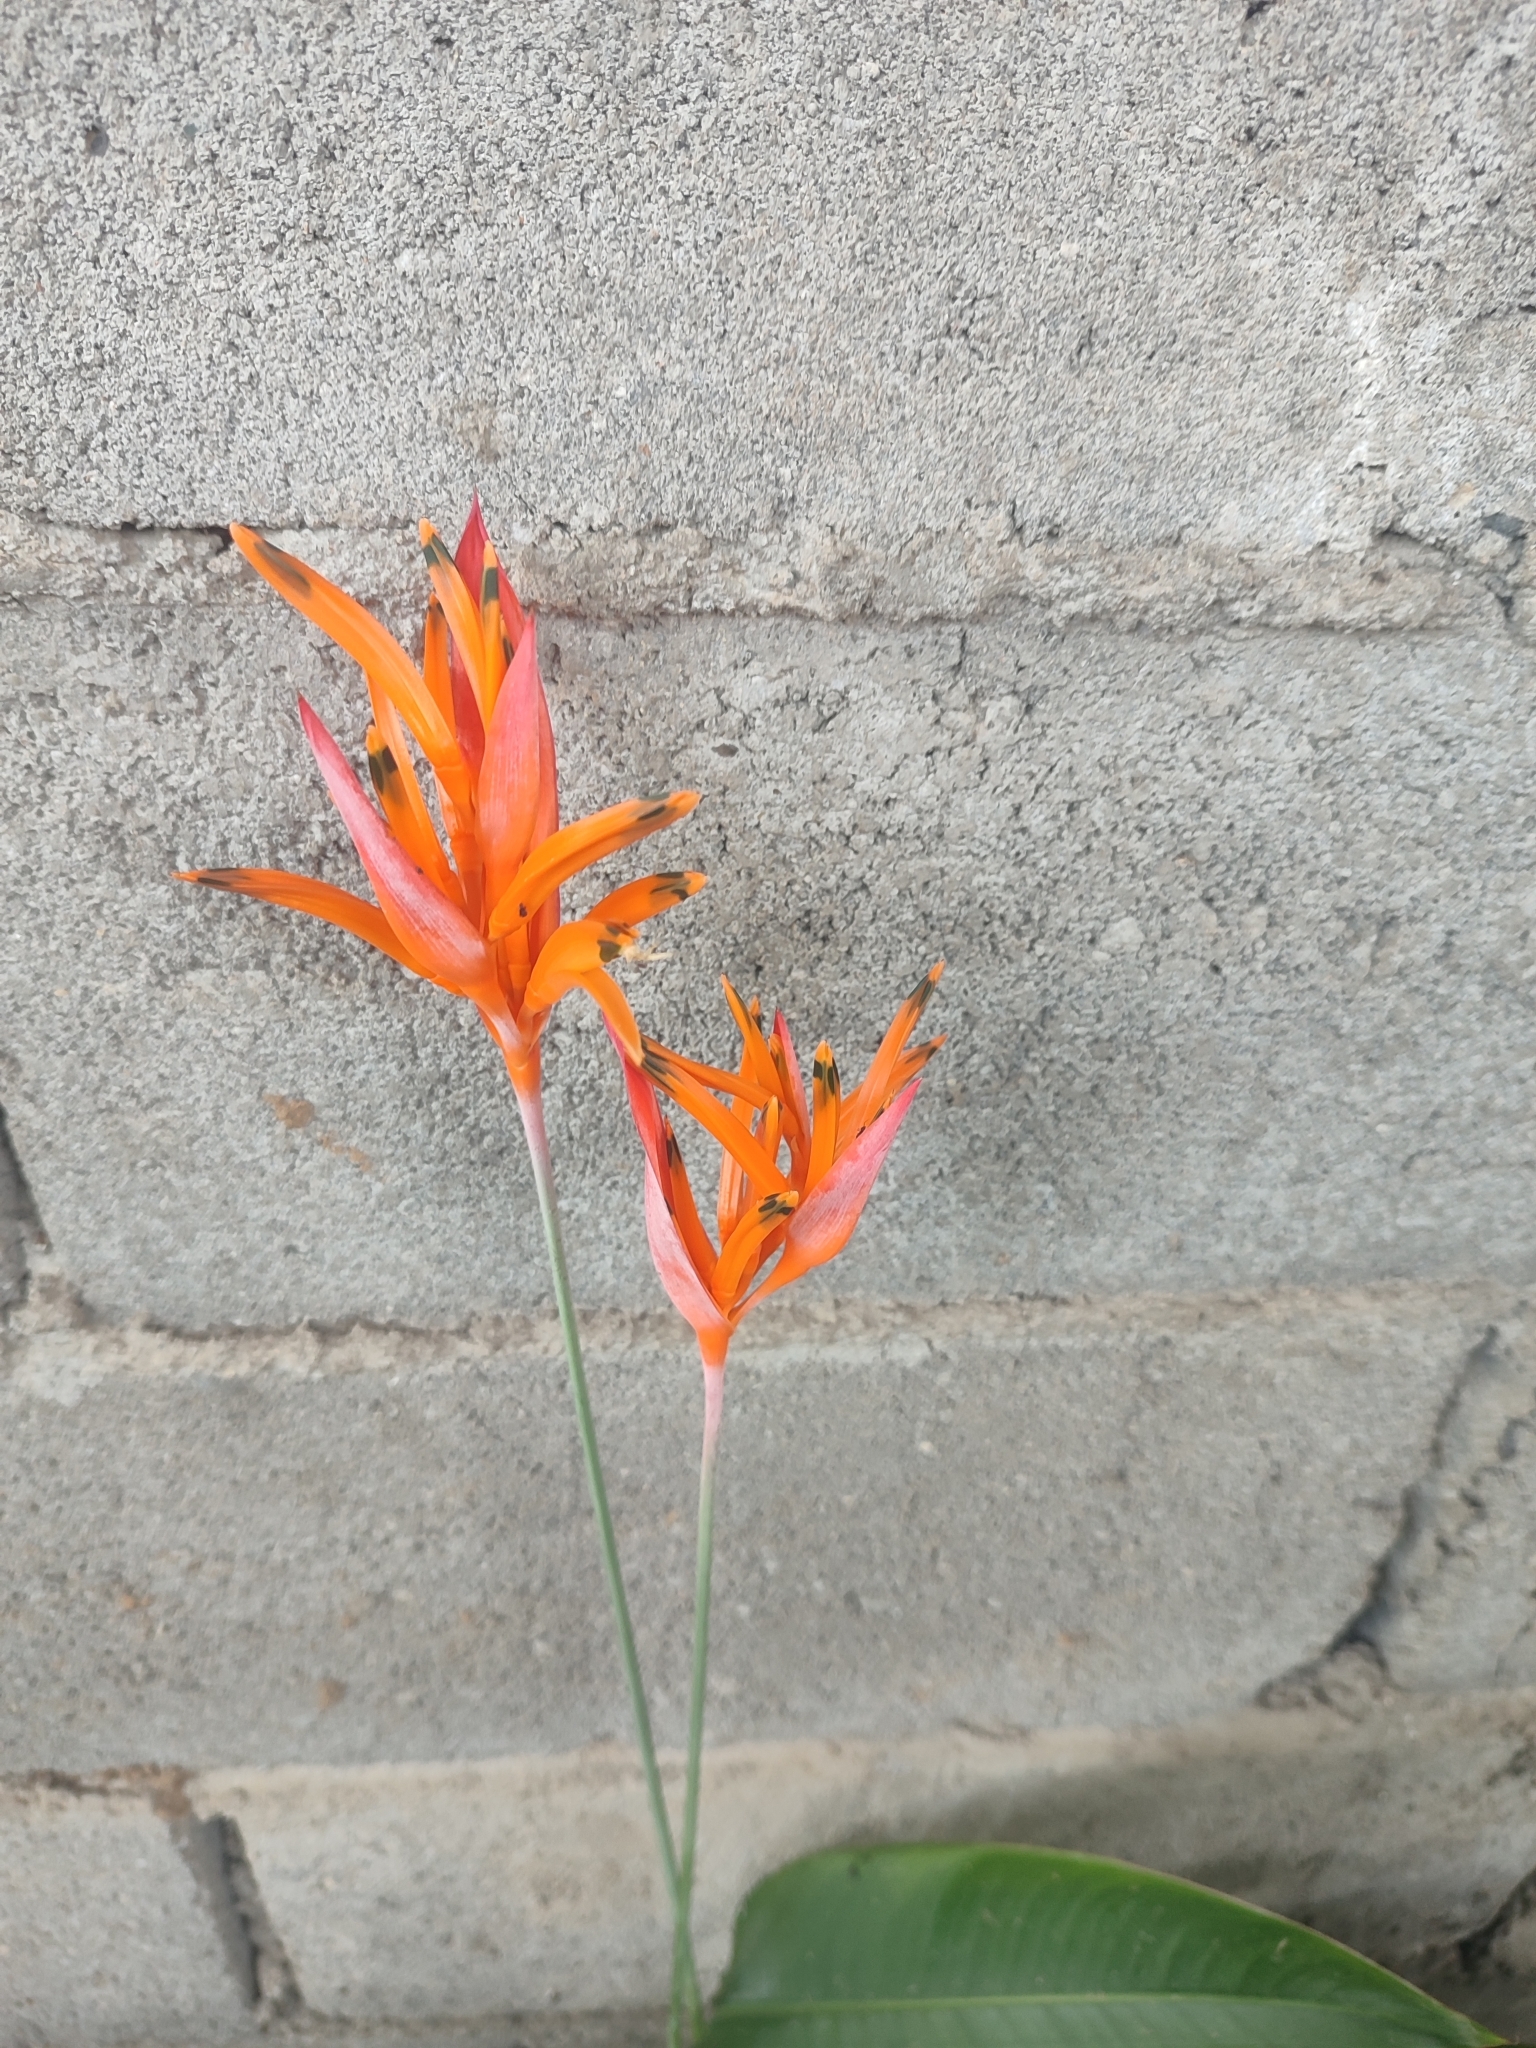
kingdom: Plantae
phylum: Tracheophyta
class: Liliopsida
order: Zingiberales
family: Heliconiaceae
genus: Heliconia
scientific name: Heliconia psittacorum
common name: Parrot's-flower
